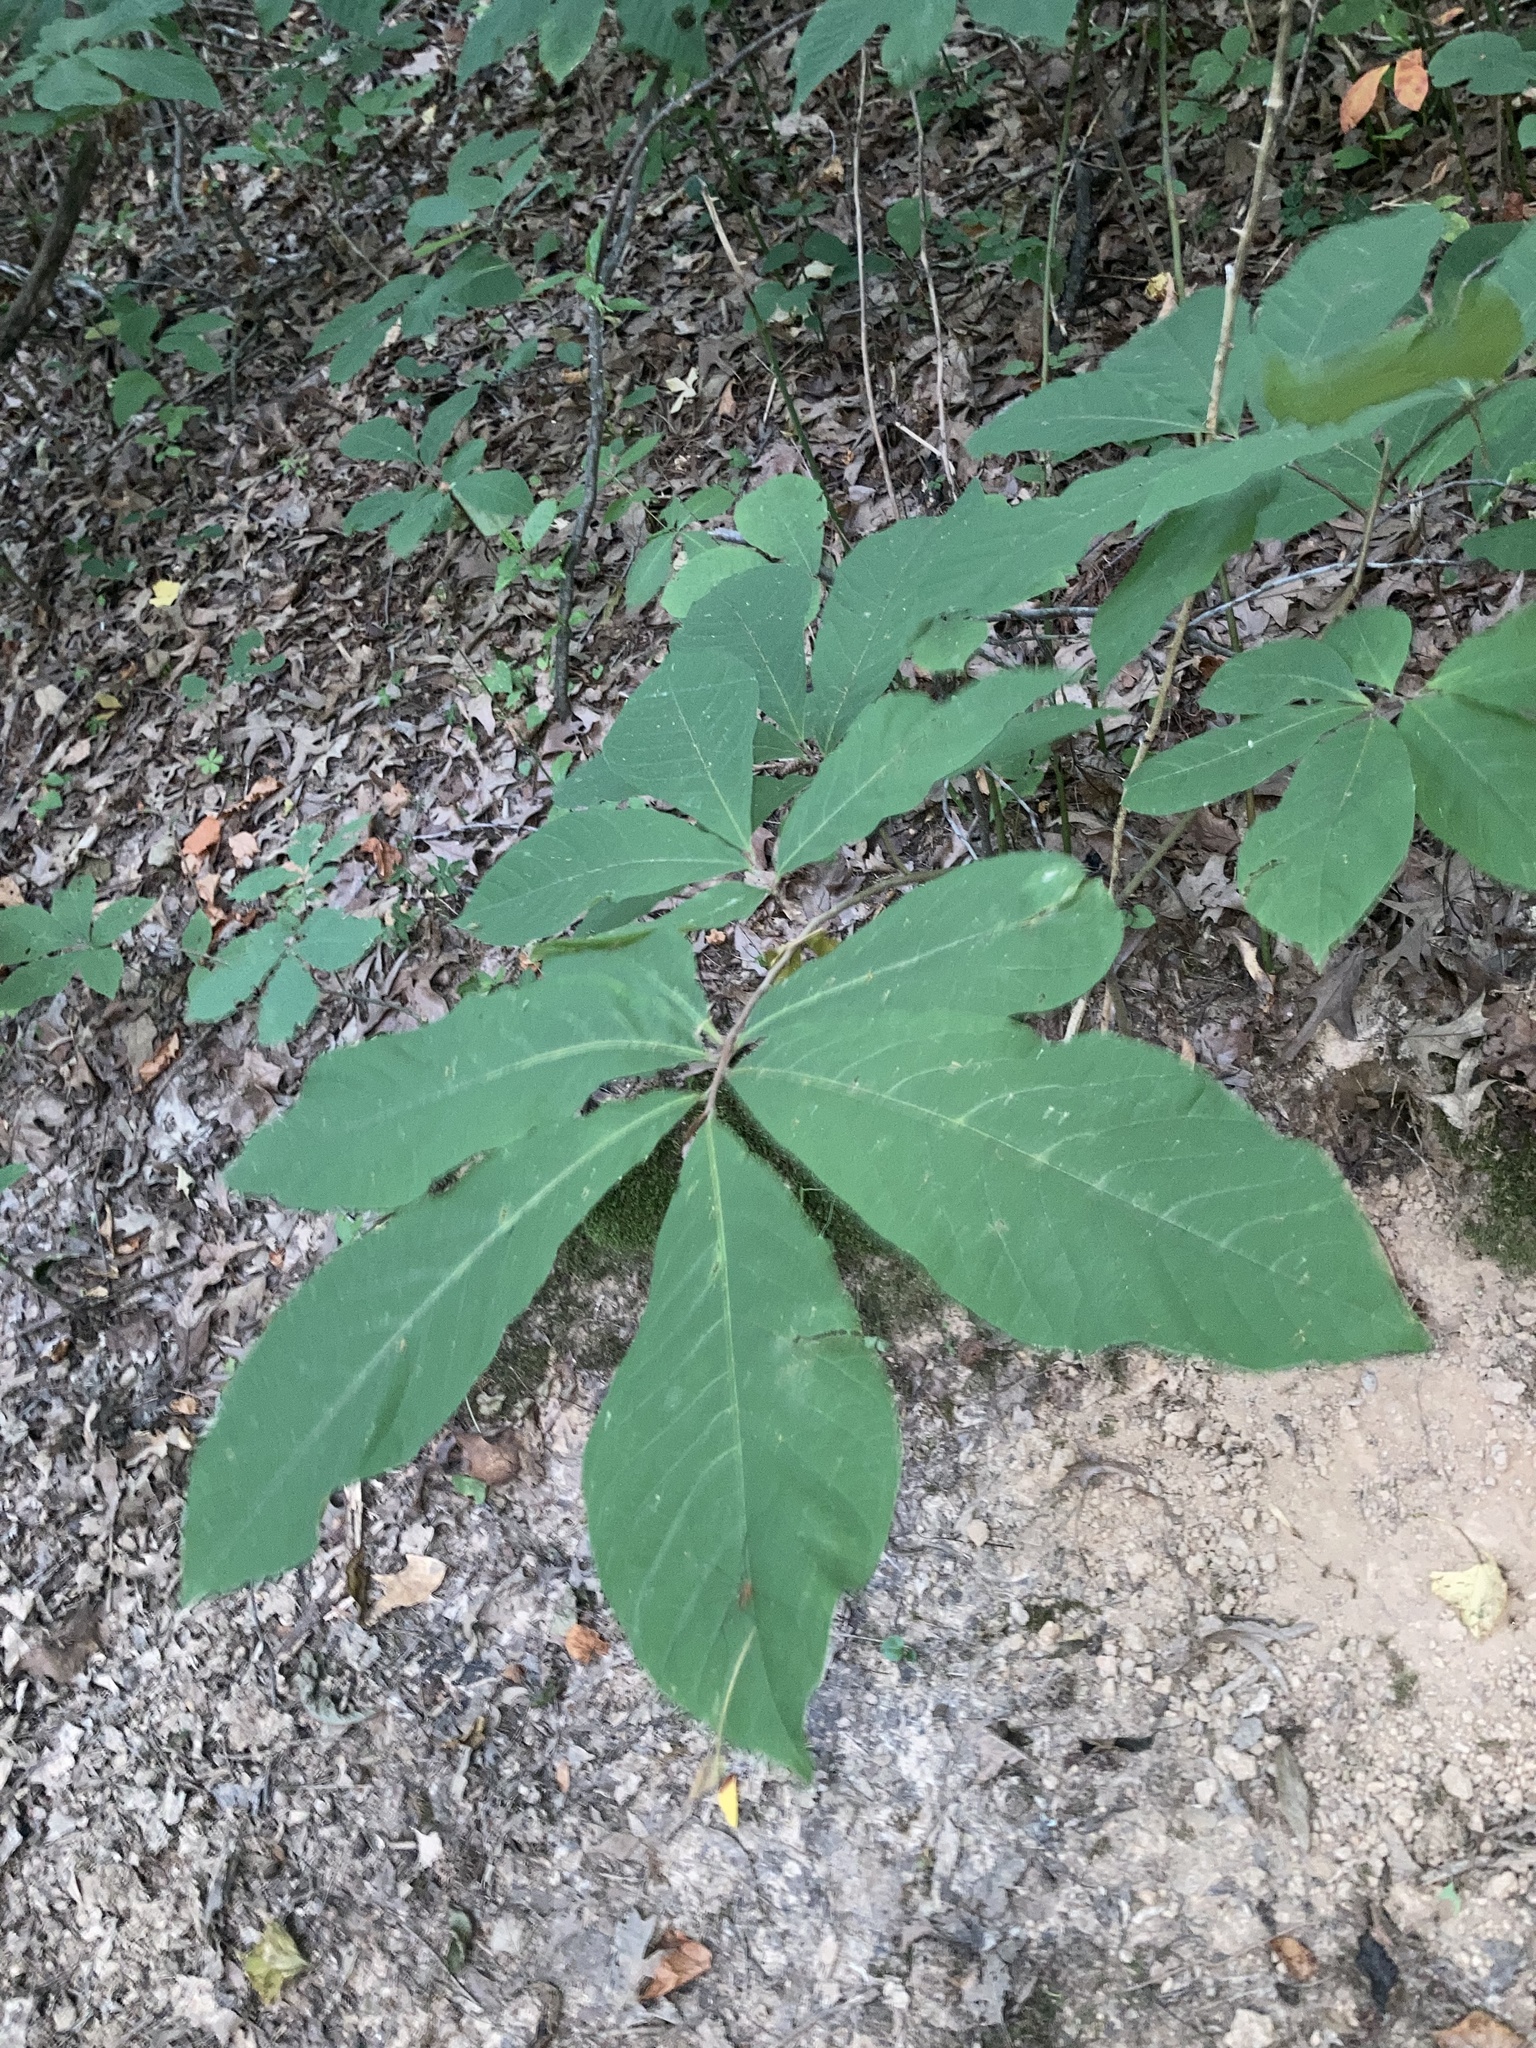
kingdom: Plantae
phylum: Tracheophyta
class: Magnoliopsida
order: Magnoliales
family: Annonaceae
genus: Asimina
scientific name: Asimina triloba
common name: Dog-banana
